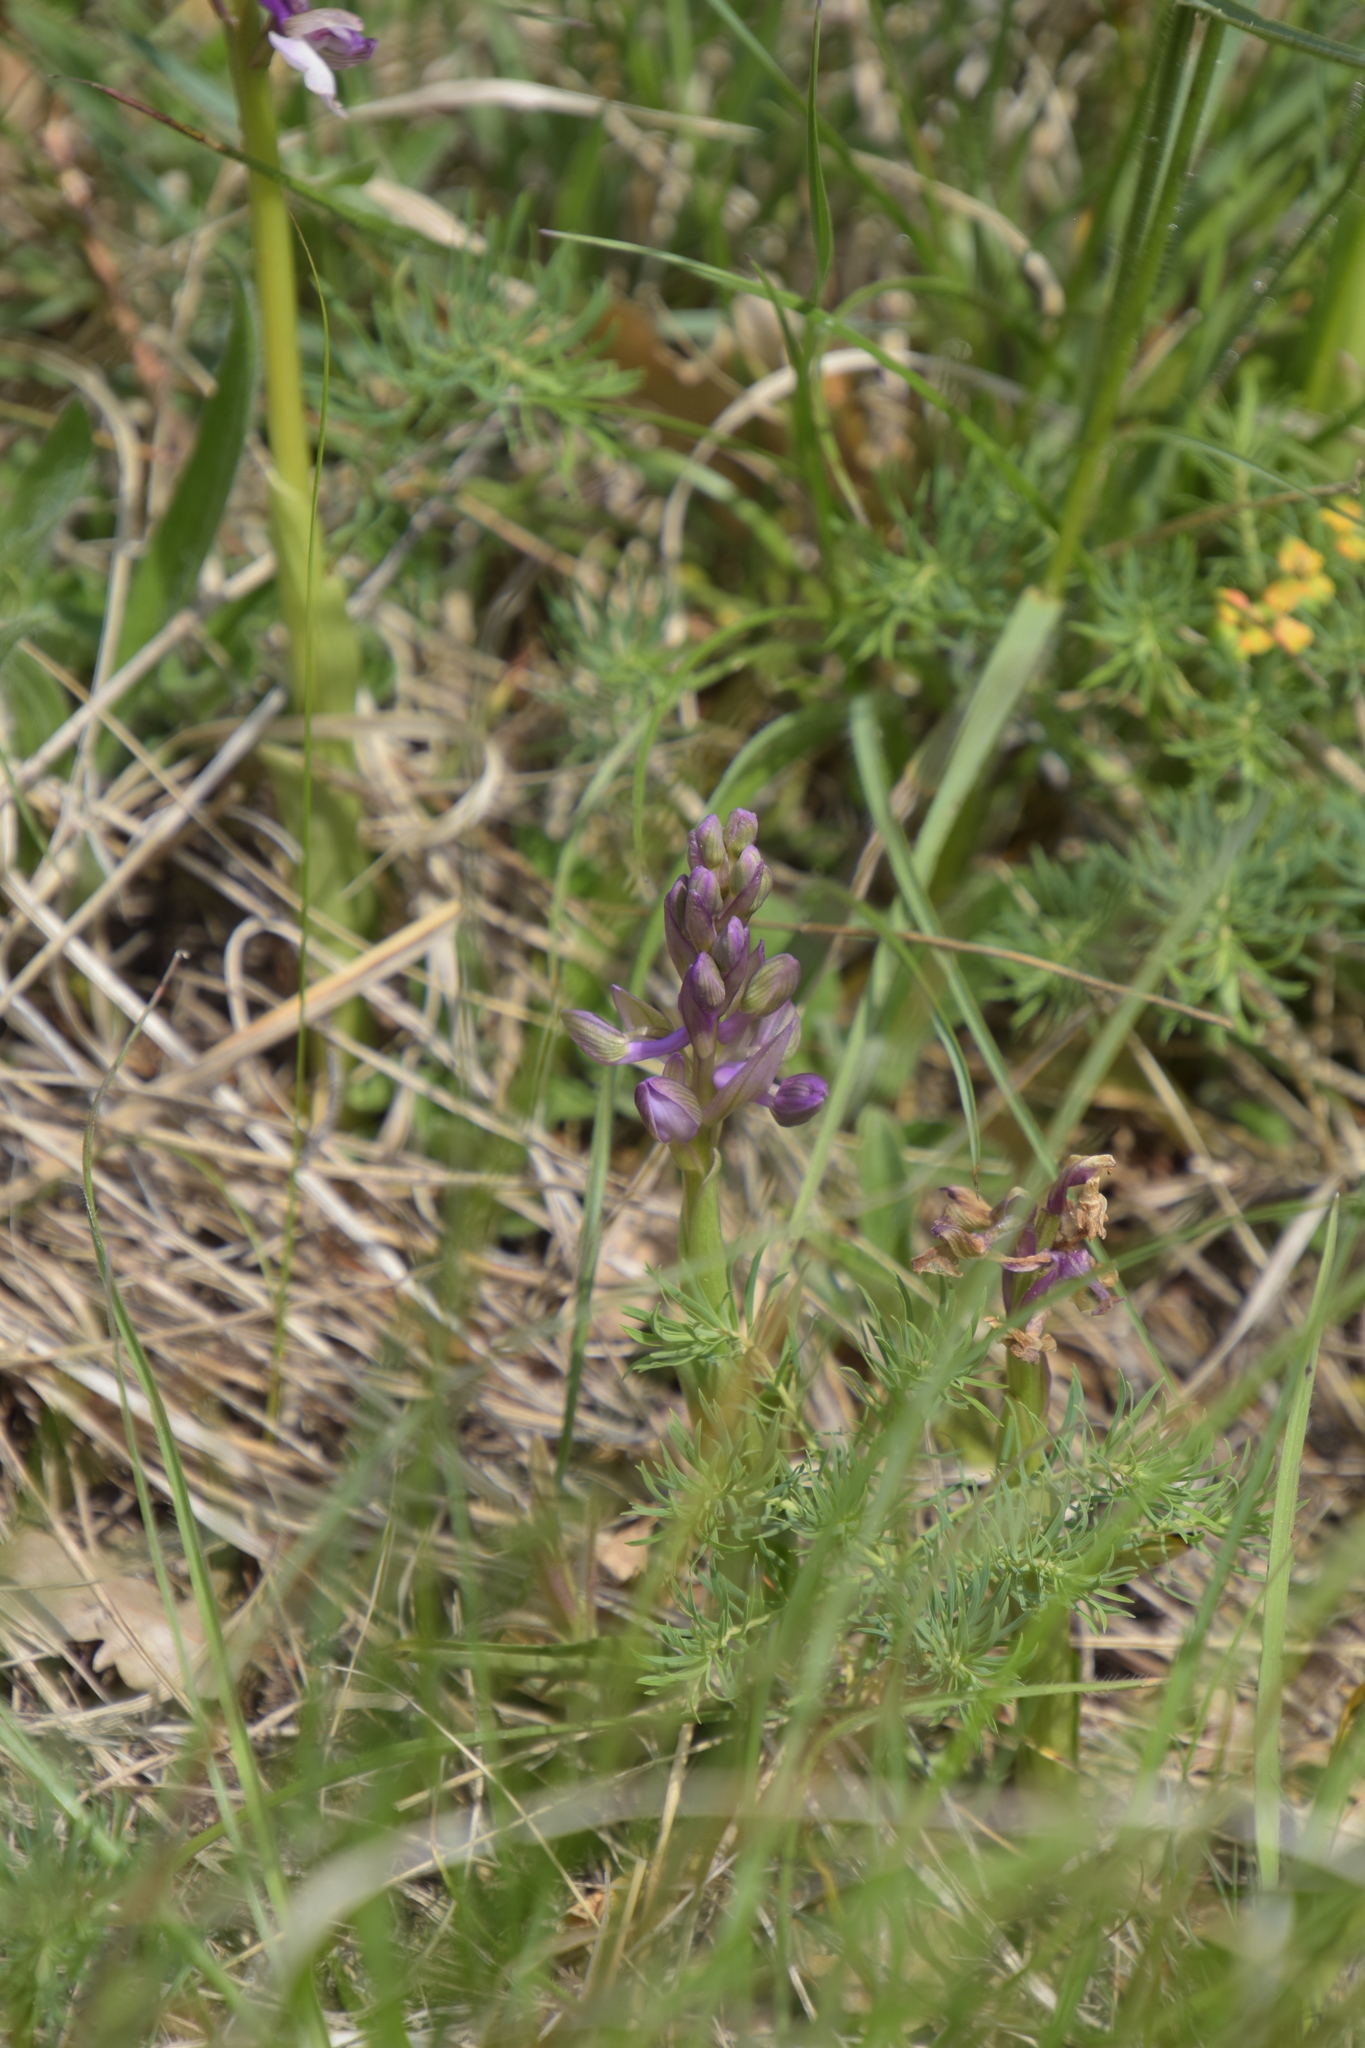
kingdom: Plantae
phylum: Tracheophyta
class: Liliopsida
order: Asparagales
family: Orchidaceae
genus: Anacamptis
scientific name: Anacamptis morio
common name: Green-winged orchid
